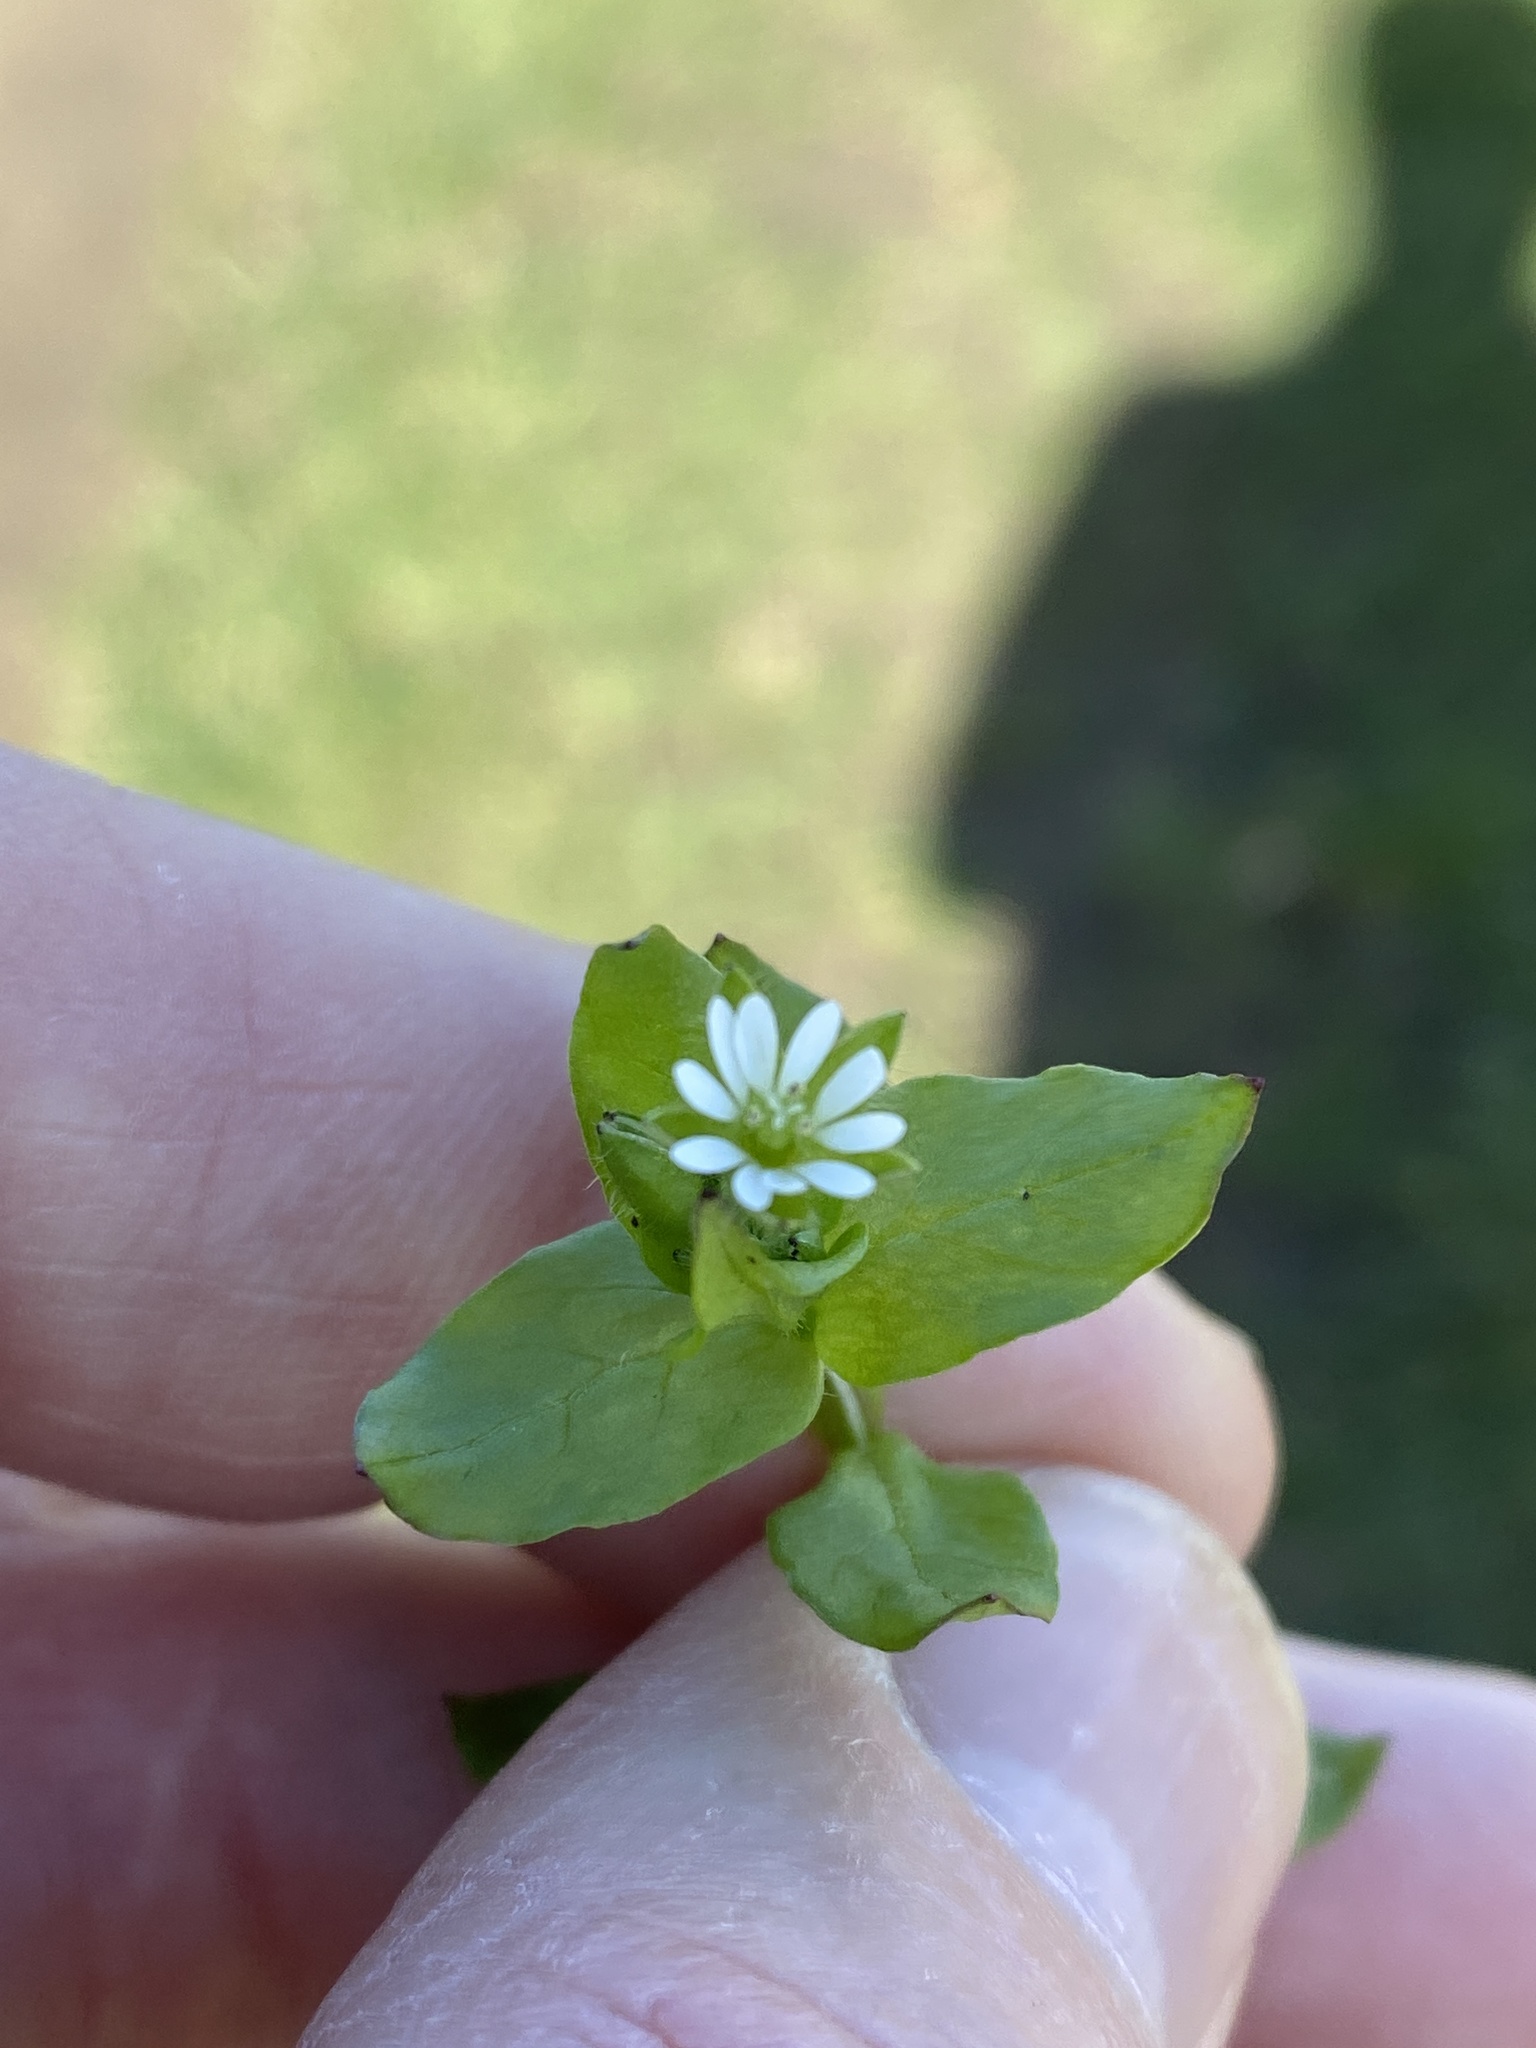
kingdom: Plantae
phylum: Tracheophyta
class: Magnoliopsida
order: Caryophyllales
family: Caryophyllaceae
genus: Stellaria
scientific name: Stellaria media
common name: Common chickweed
